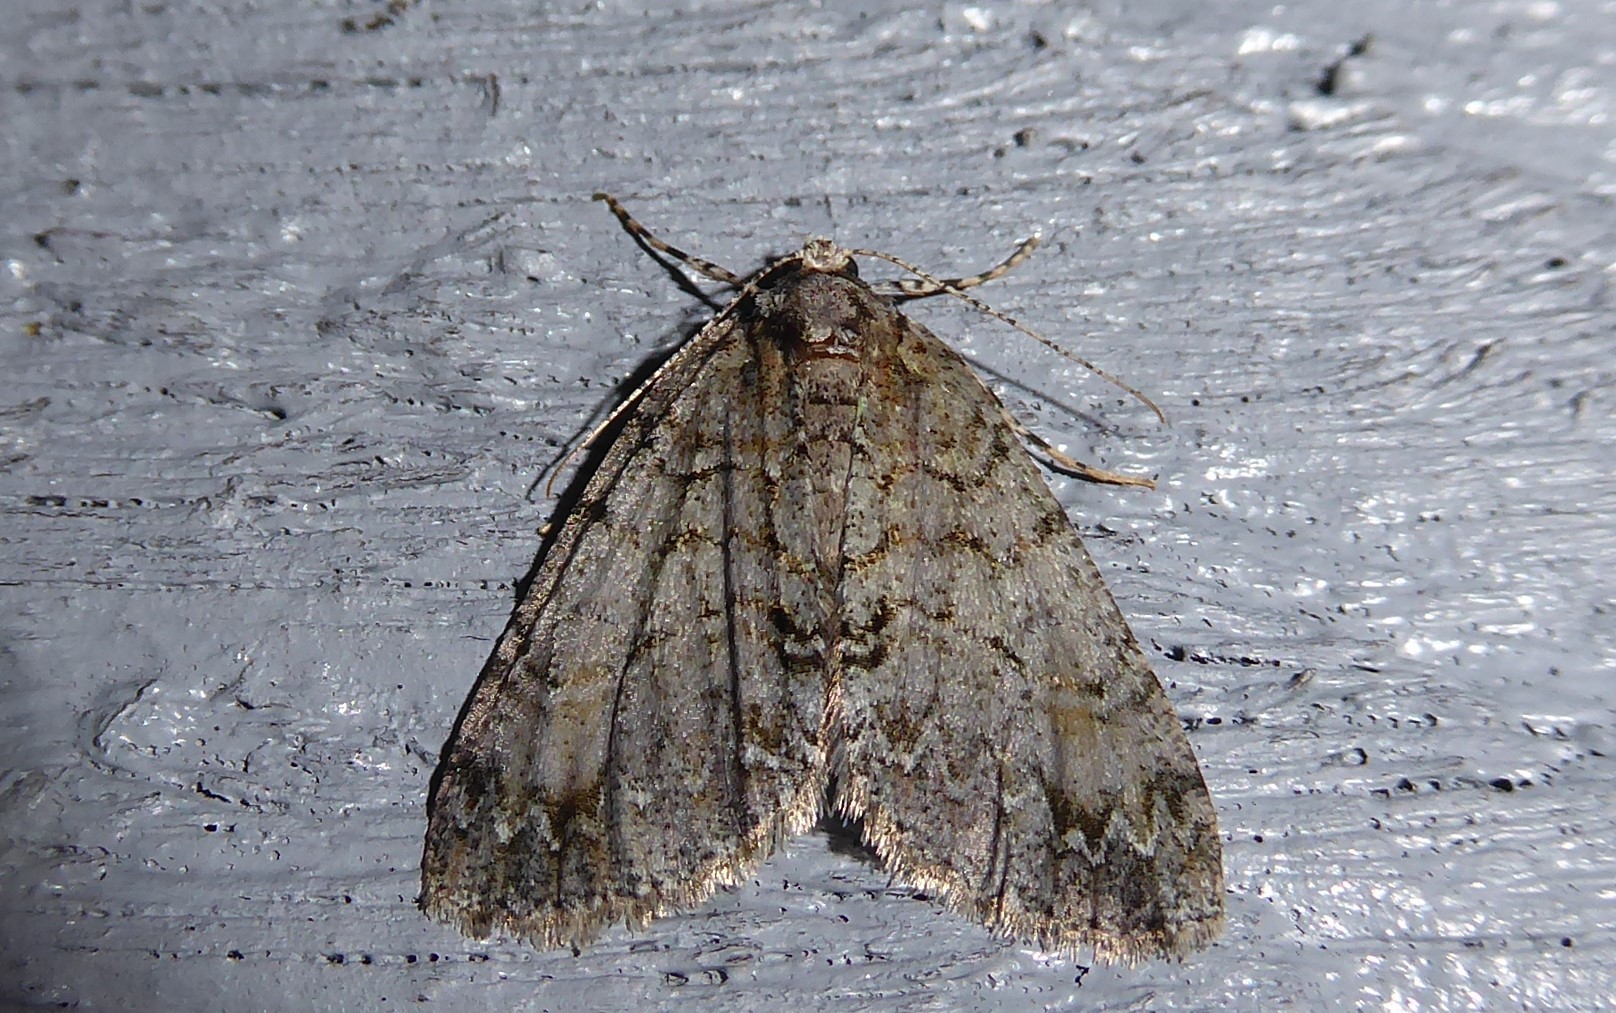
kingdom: Animalia
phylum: Arthropoda
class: Insecta
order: Lepidoptera
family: Geometridae
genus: Pseudocoremia
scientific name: Pseudocoremia suavis
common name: Common forest looper
